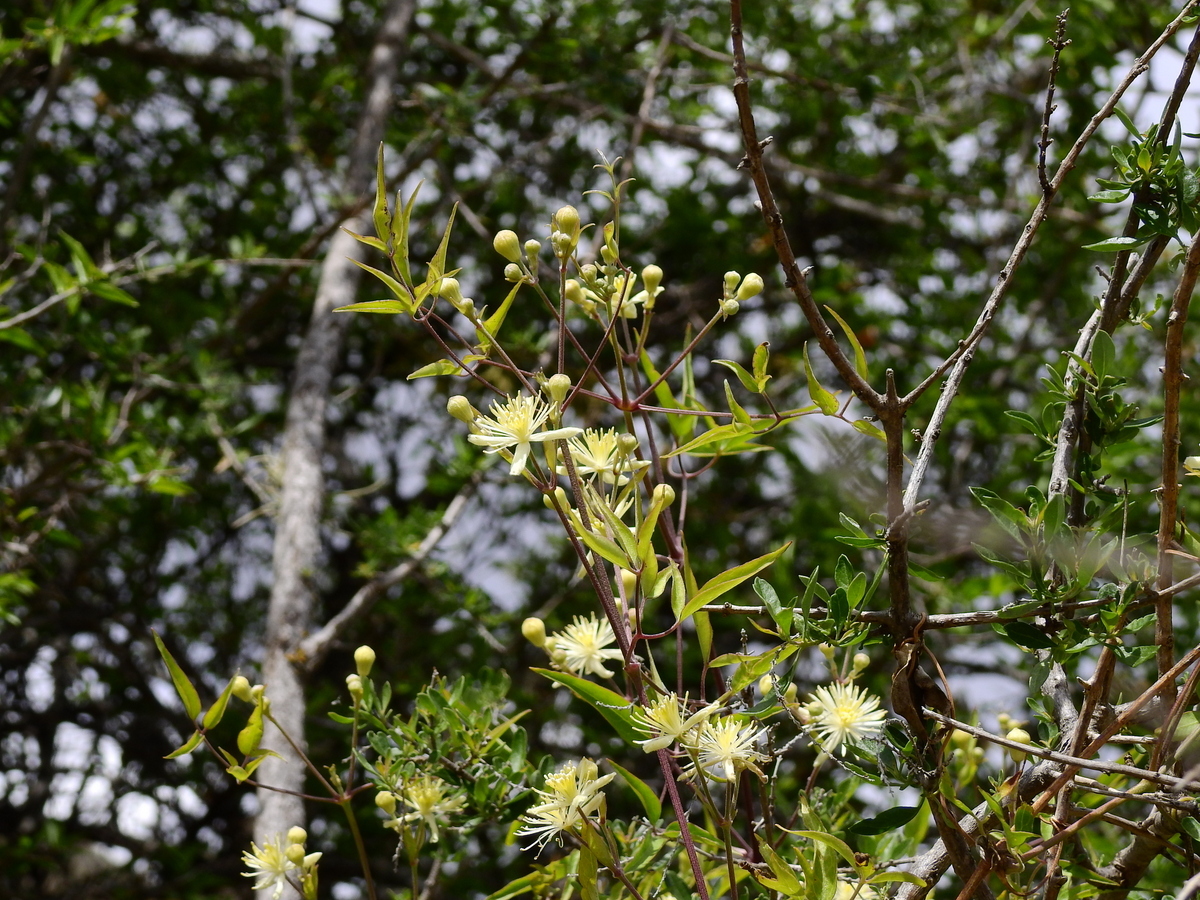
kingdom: Plantae
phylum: Tracheophyta
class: Magnoliopsida
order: Ranunculales
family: Ranunculaceae
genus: Clematis
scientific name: Clematis montevidensis
